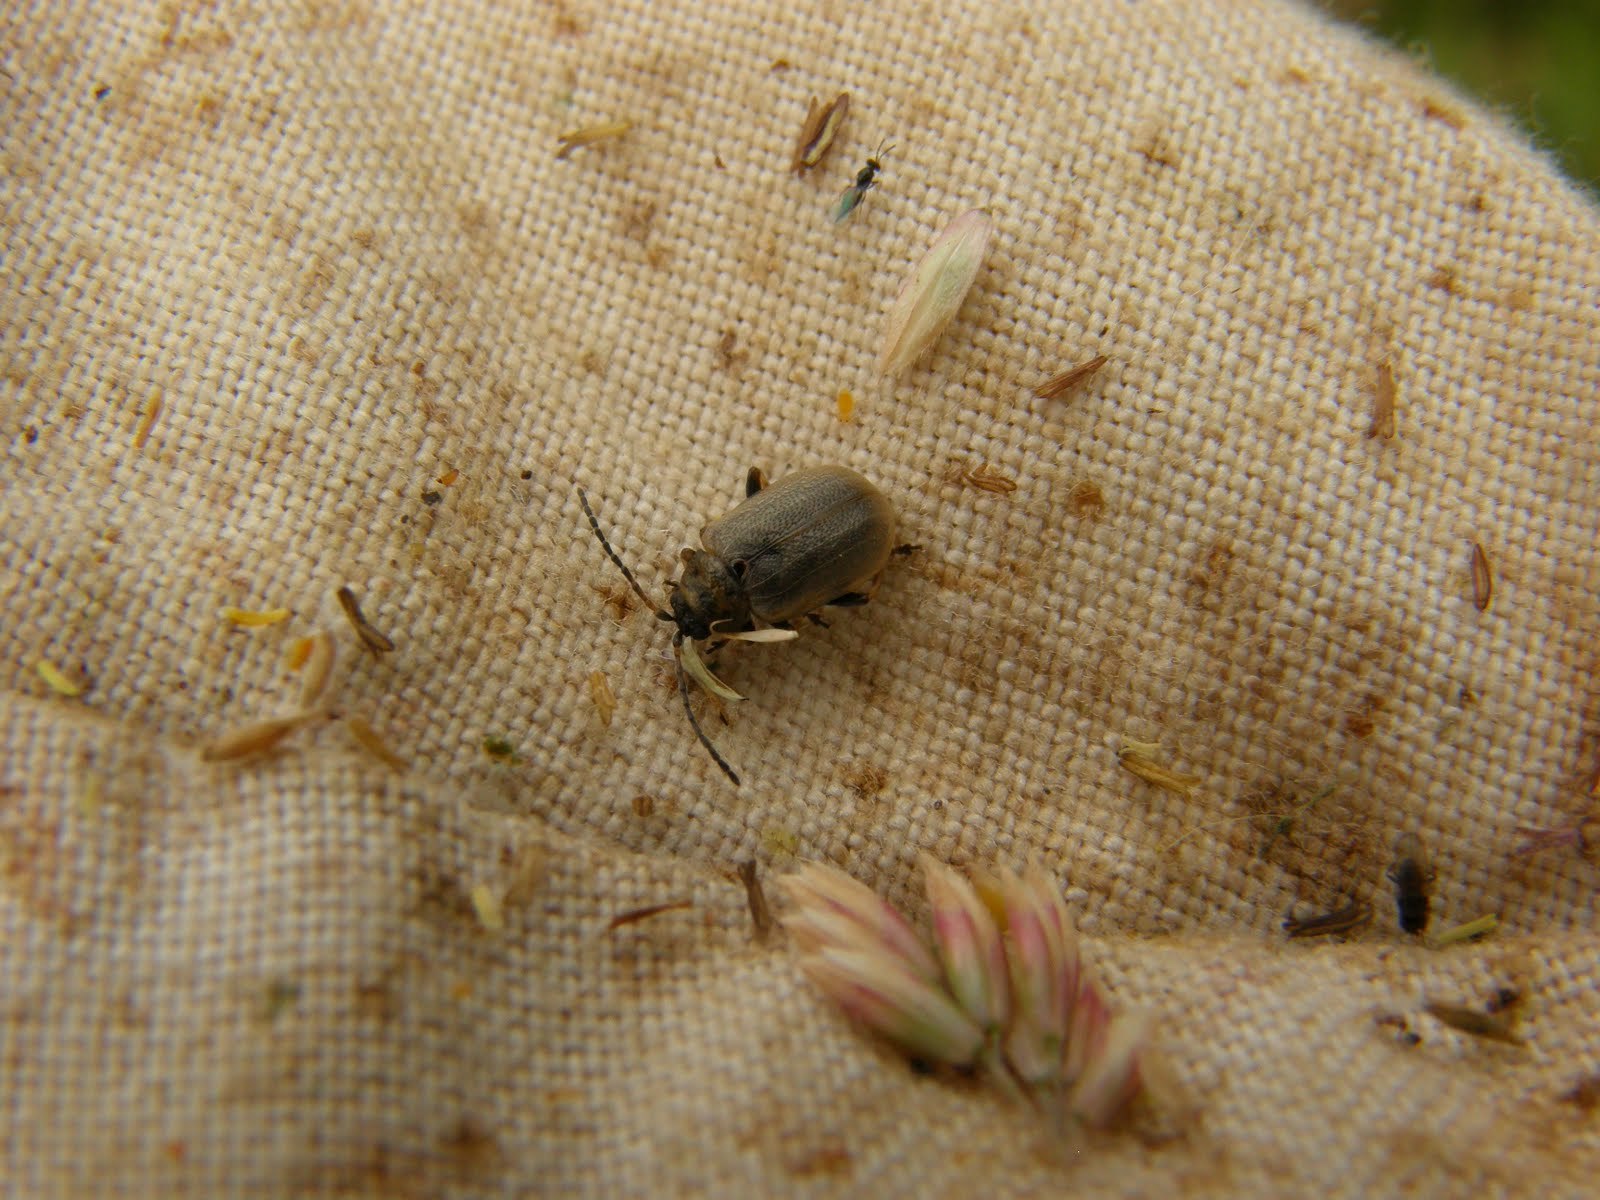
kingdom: Animalia
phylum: Arthropoda
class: Insecta
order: Coleoptera
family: Chrysomelidae
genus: Lochmaea
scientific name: Lochmaea caprea
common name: Willow leaf beetle
